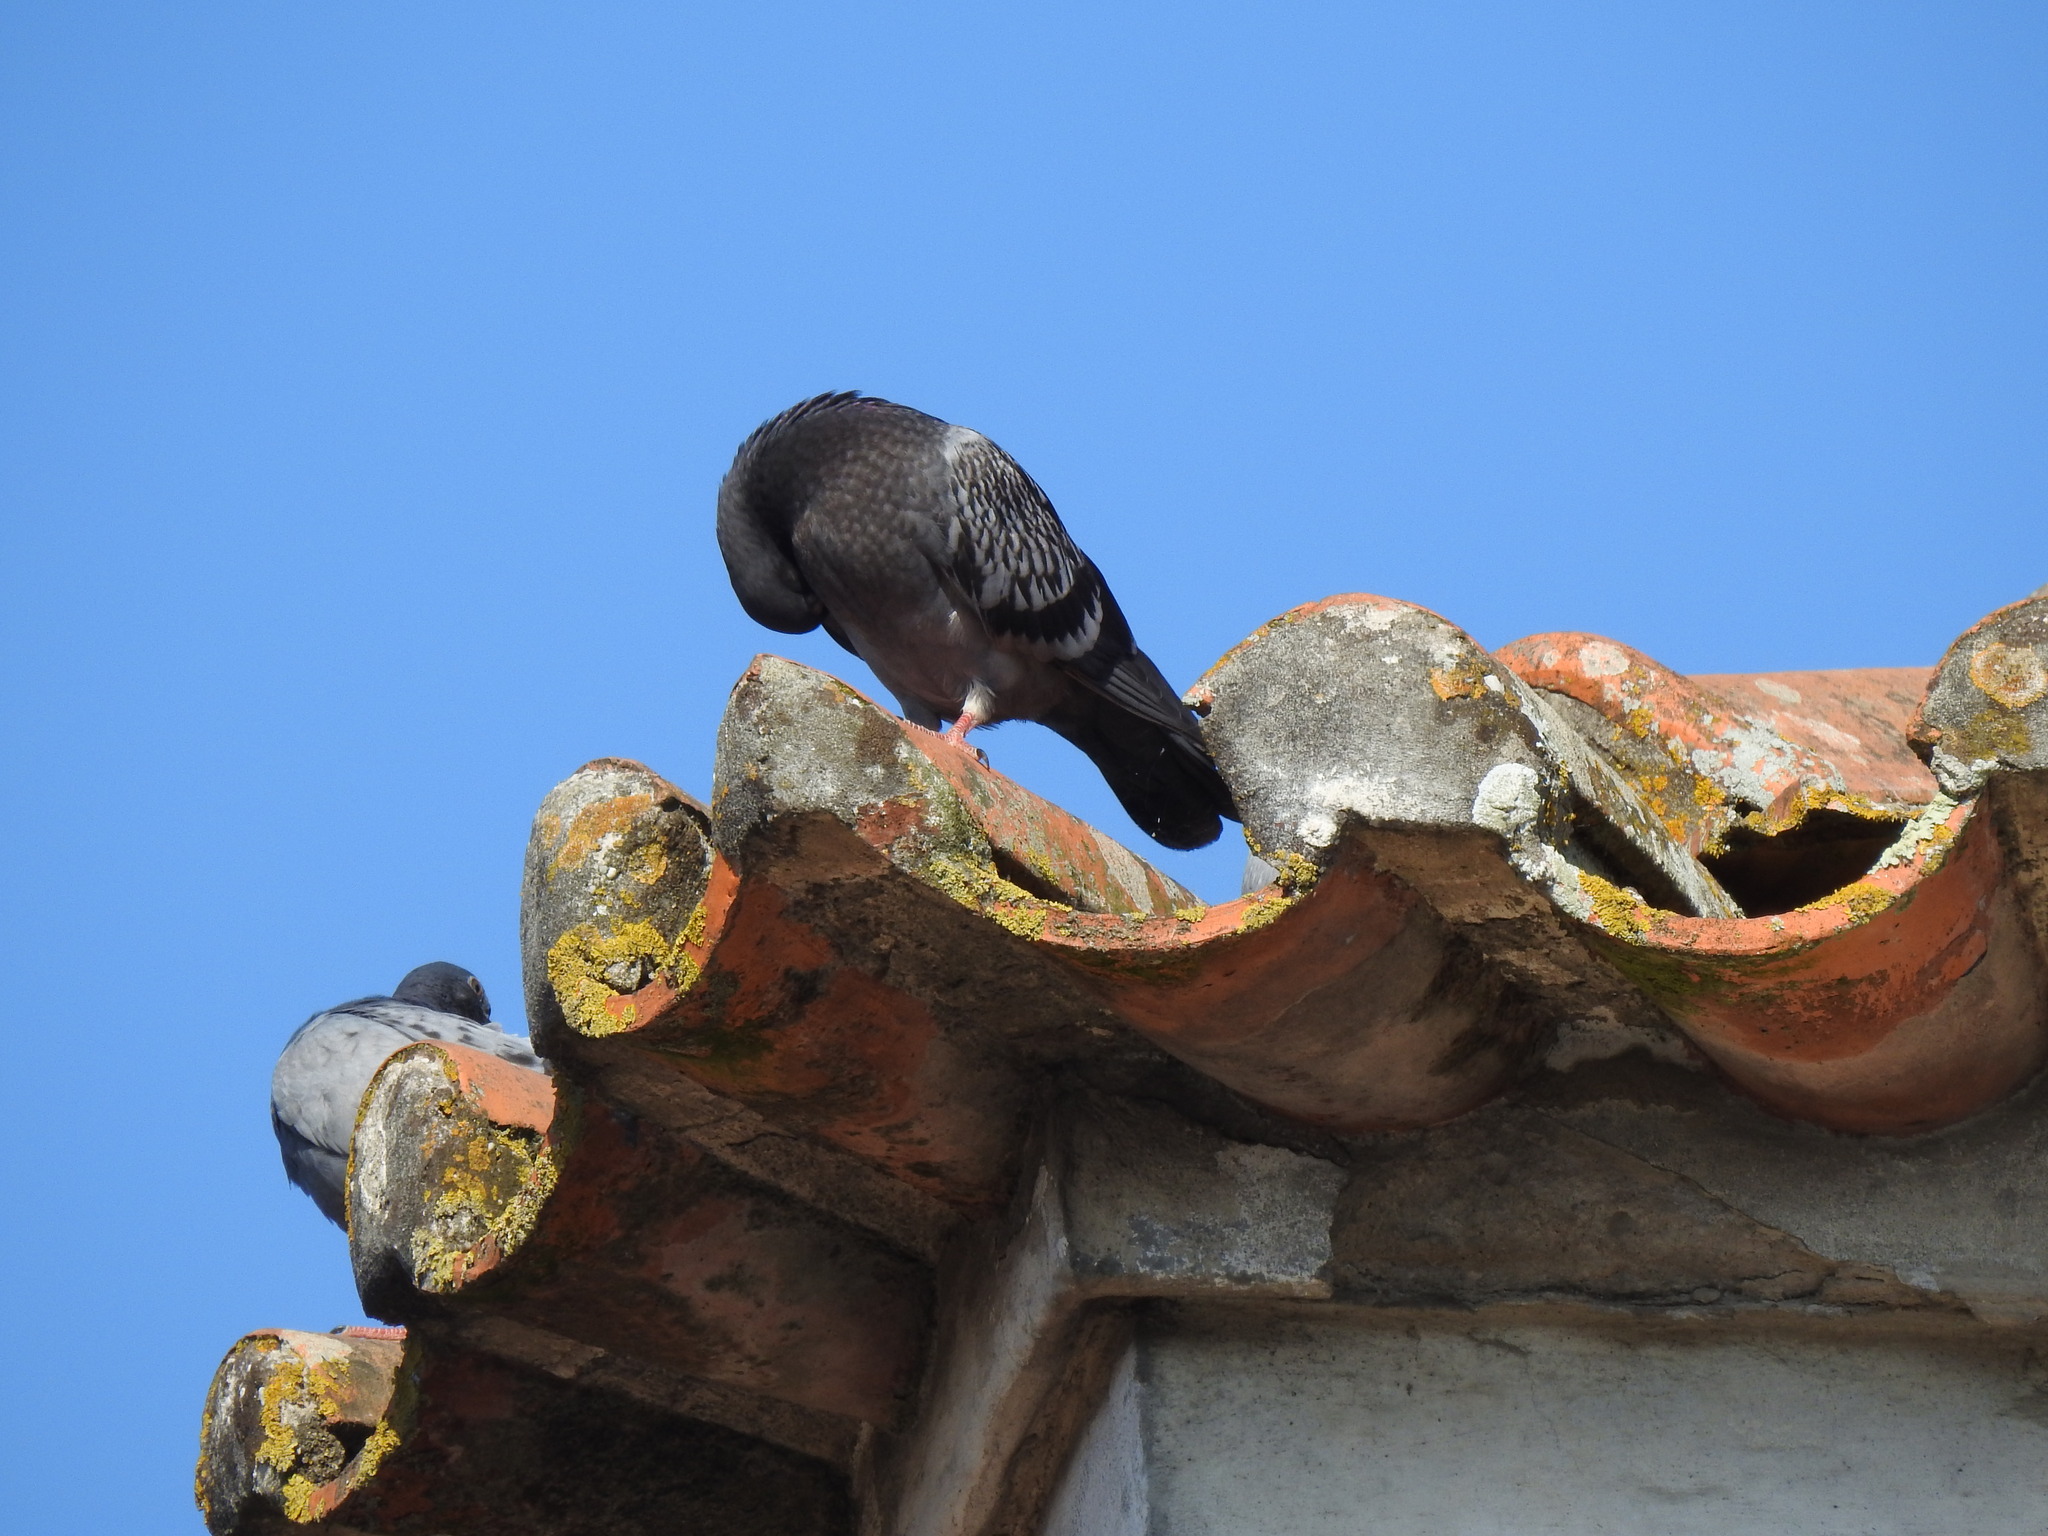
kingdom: Animalia
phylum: Chordata
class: Aves
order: Columbiformes
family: Columbidae
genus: Columba
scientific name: Columba livia
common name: Rock pigeon
